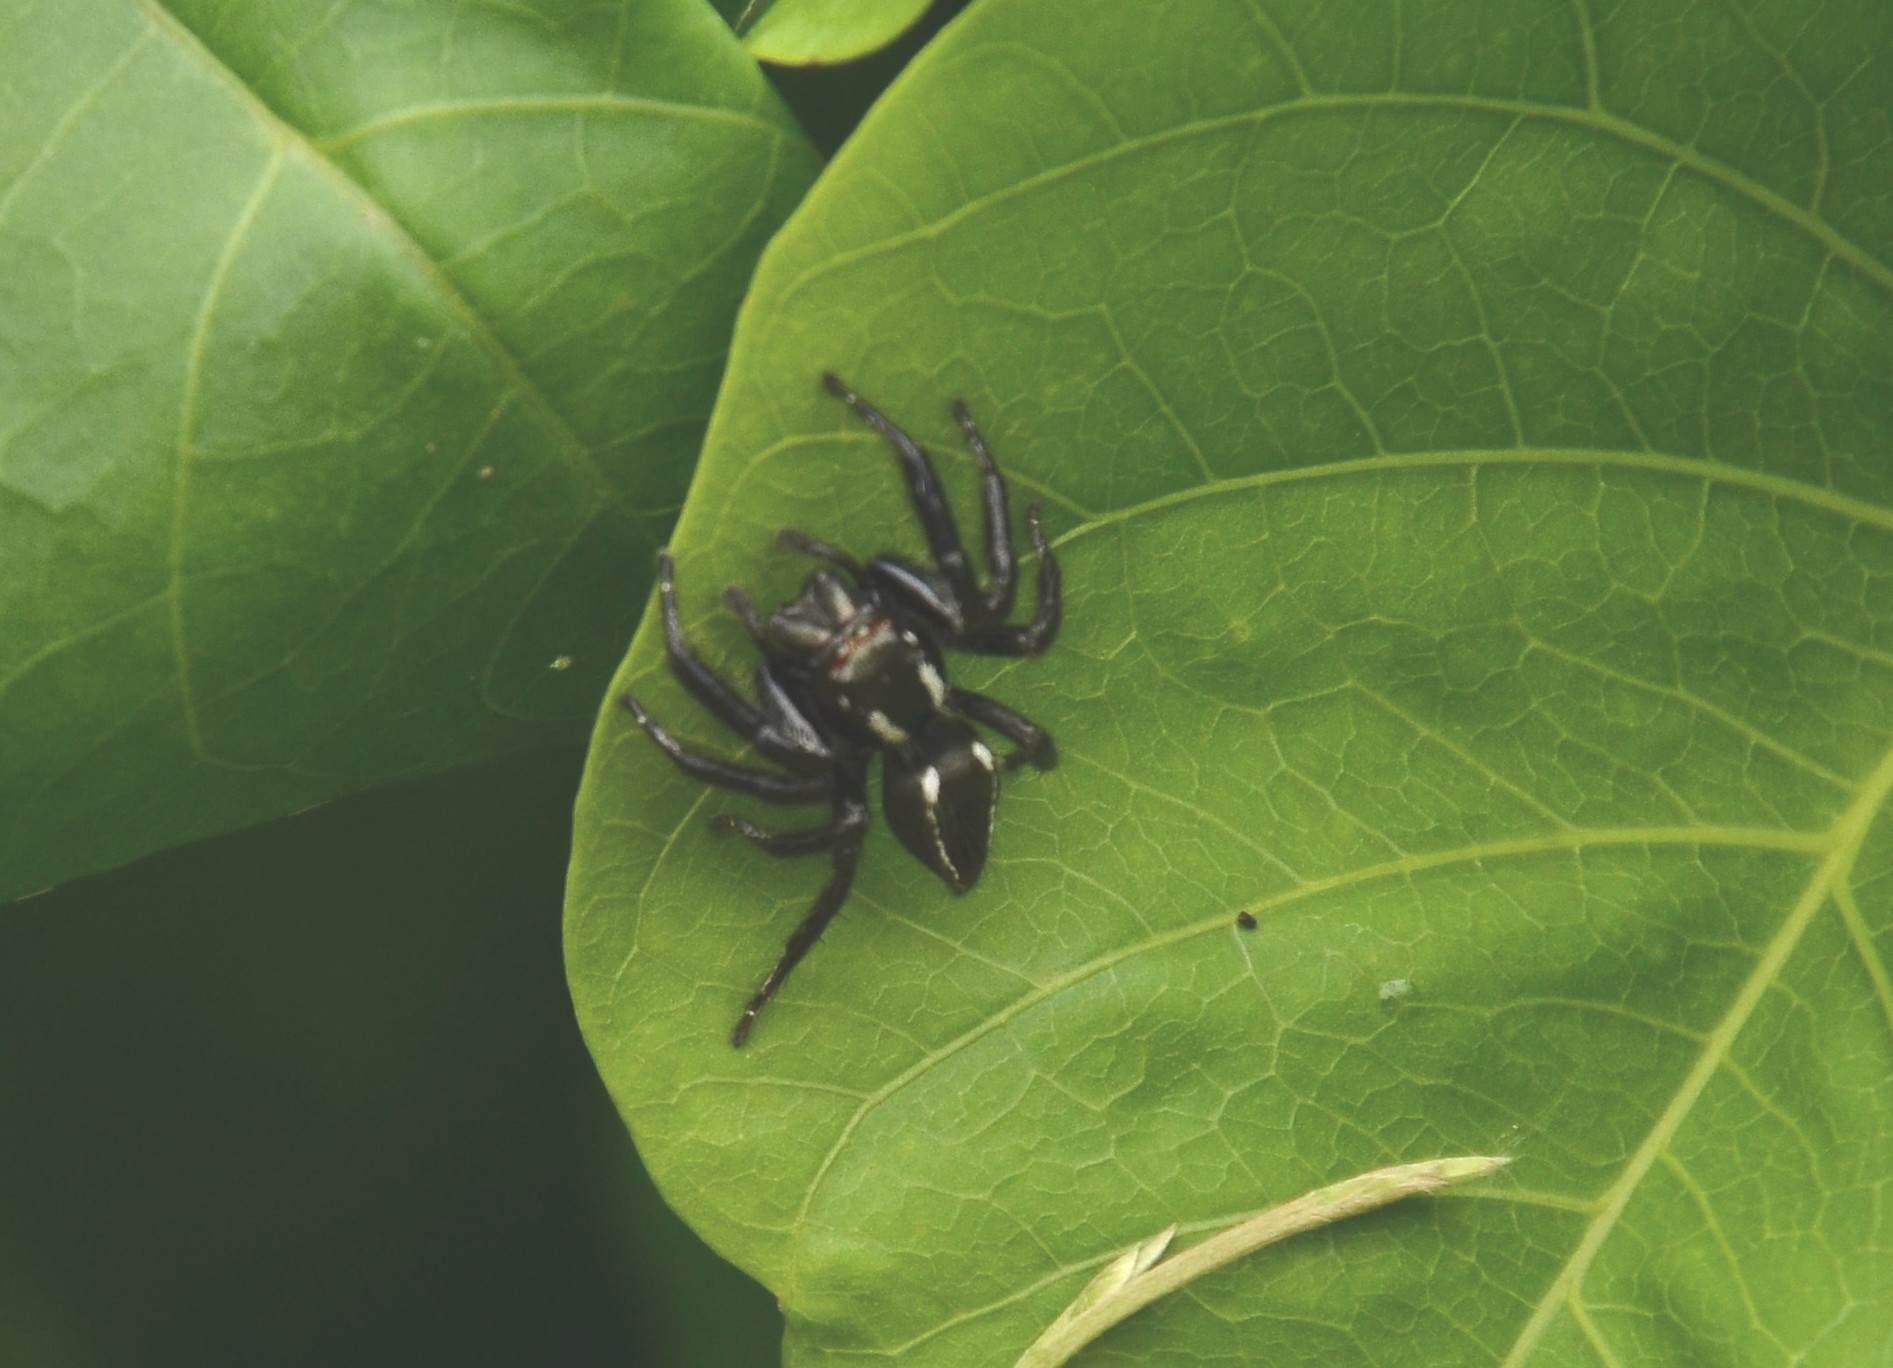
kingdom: Animalia
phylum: Arthropoda
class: Arachnida
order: Araneae
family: Salticidae
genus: Carrhotus
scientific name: Carrhotus viduus
